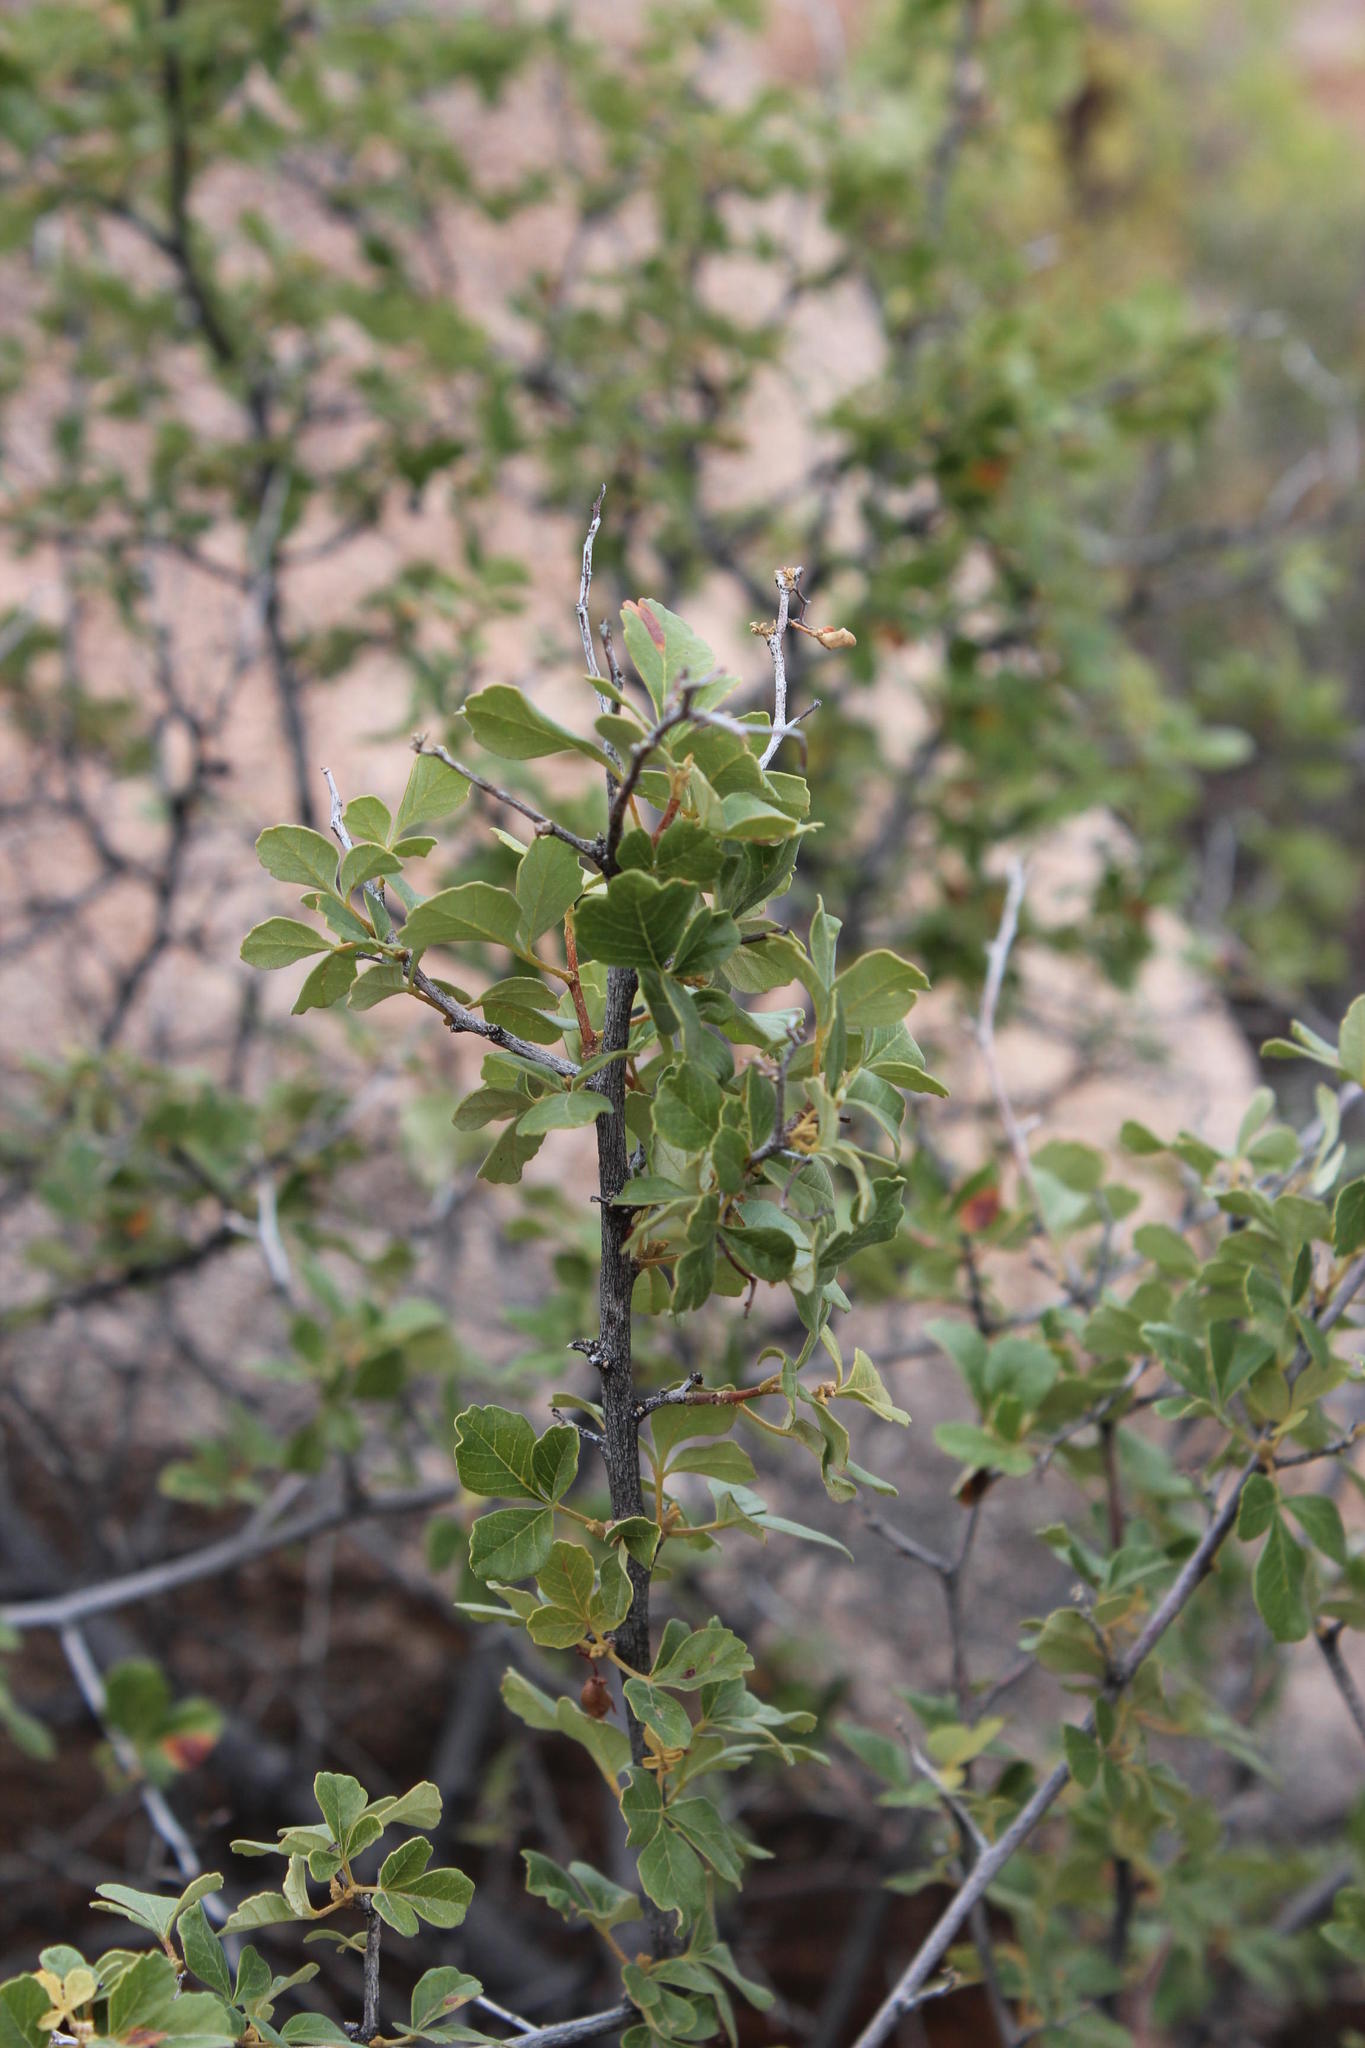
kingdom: Plantae
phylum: Tracheophyta
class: Magnoliopsida
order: Sapindales
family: Anacardiaceae
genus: Searsia
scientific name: Searsia populifolia
